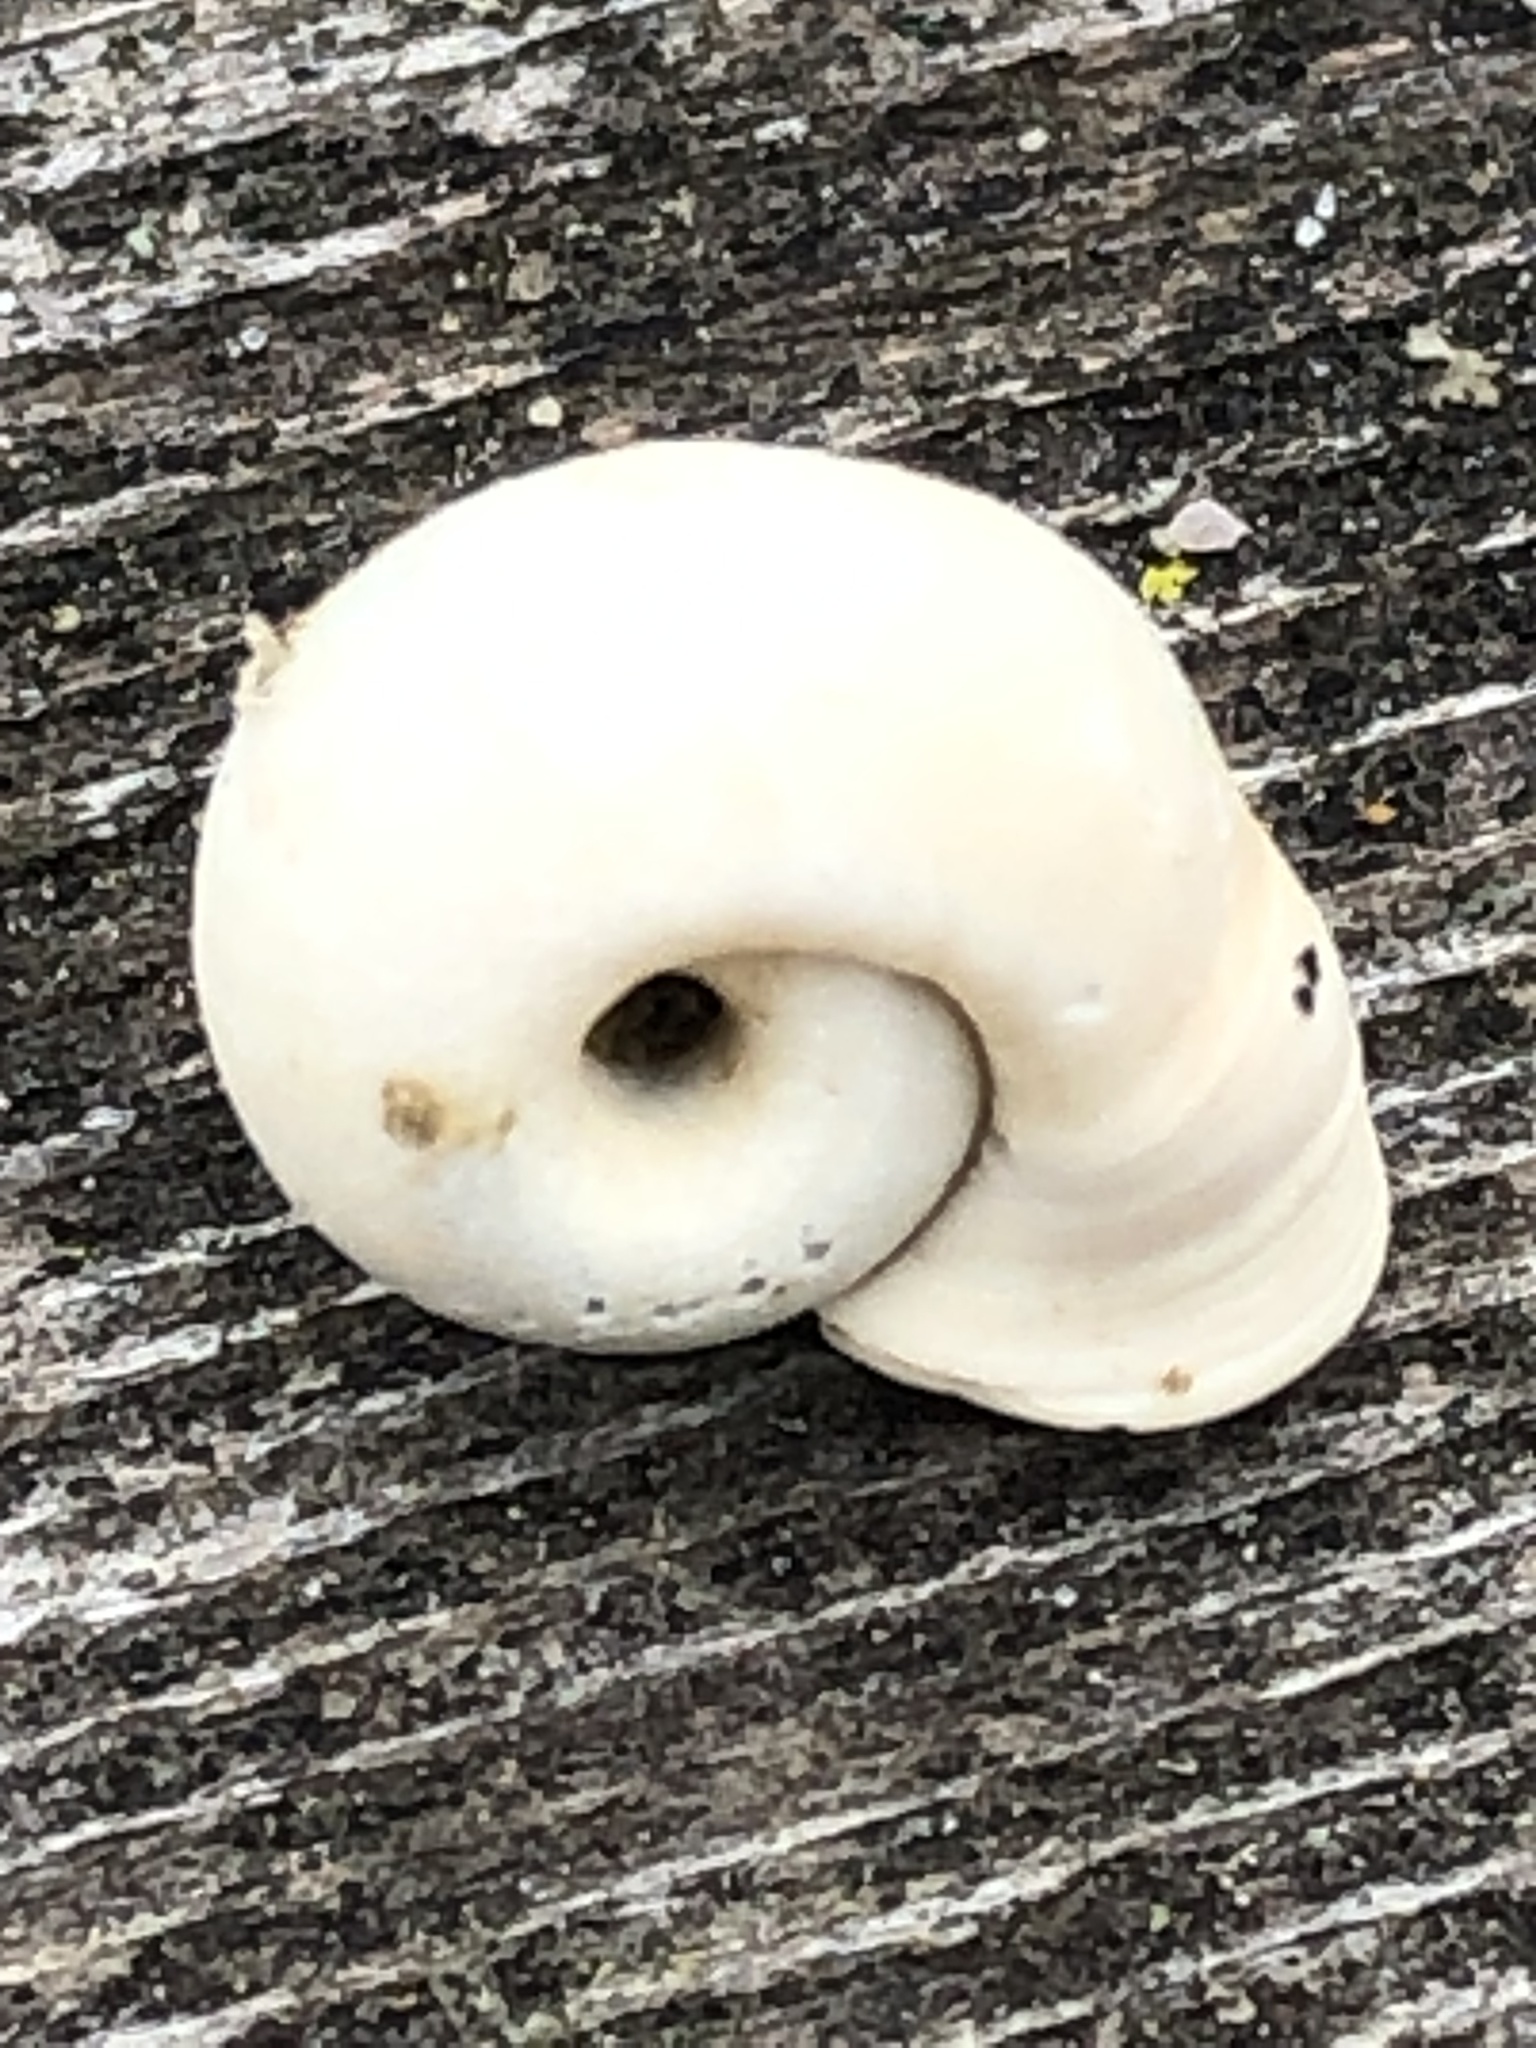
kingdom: Animalia
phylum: Mollusca
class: Gastropoda
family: Planorbidae
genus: Planorbella
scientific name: Planorbella trivolvis
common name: Marsh rams-horn
